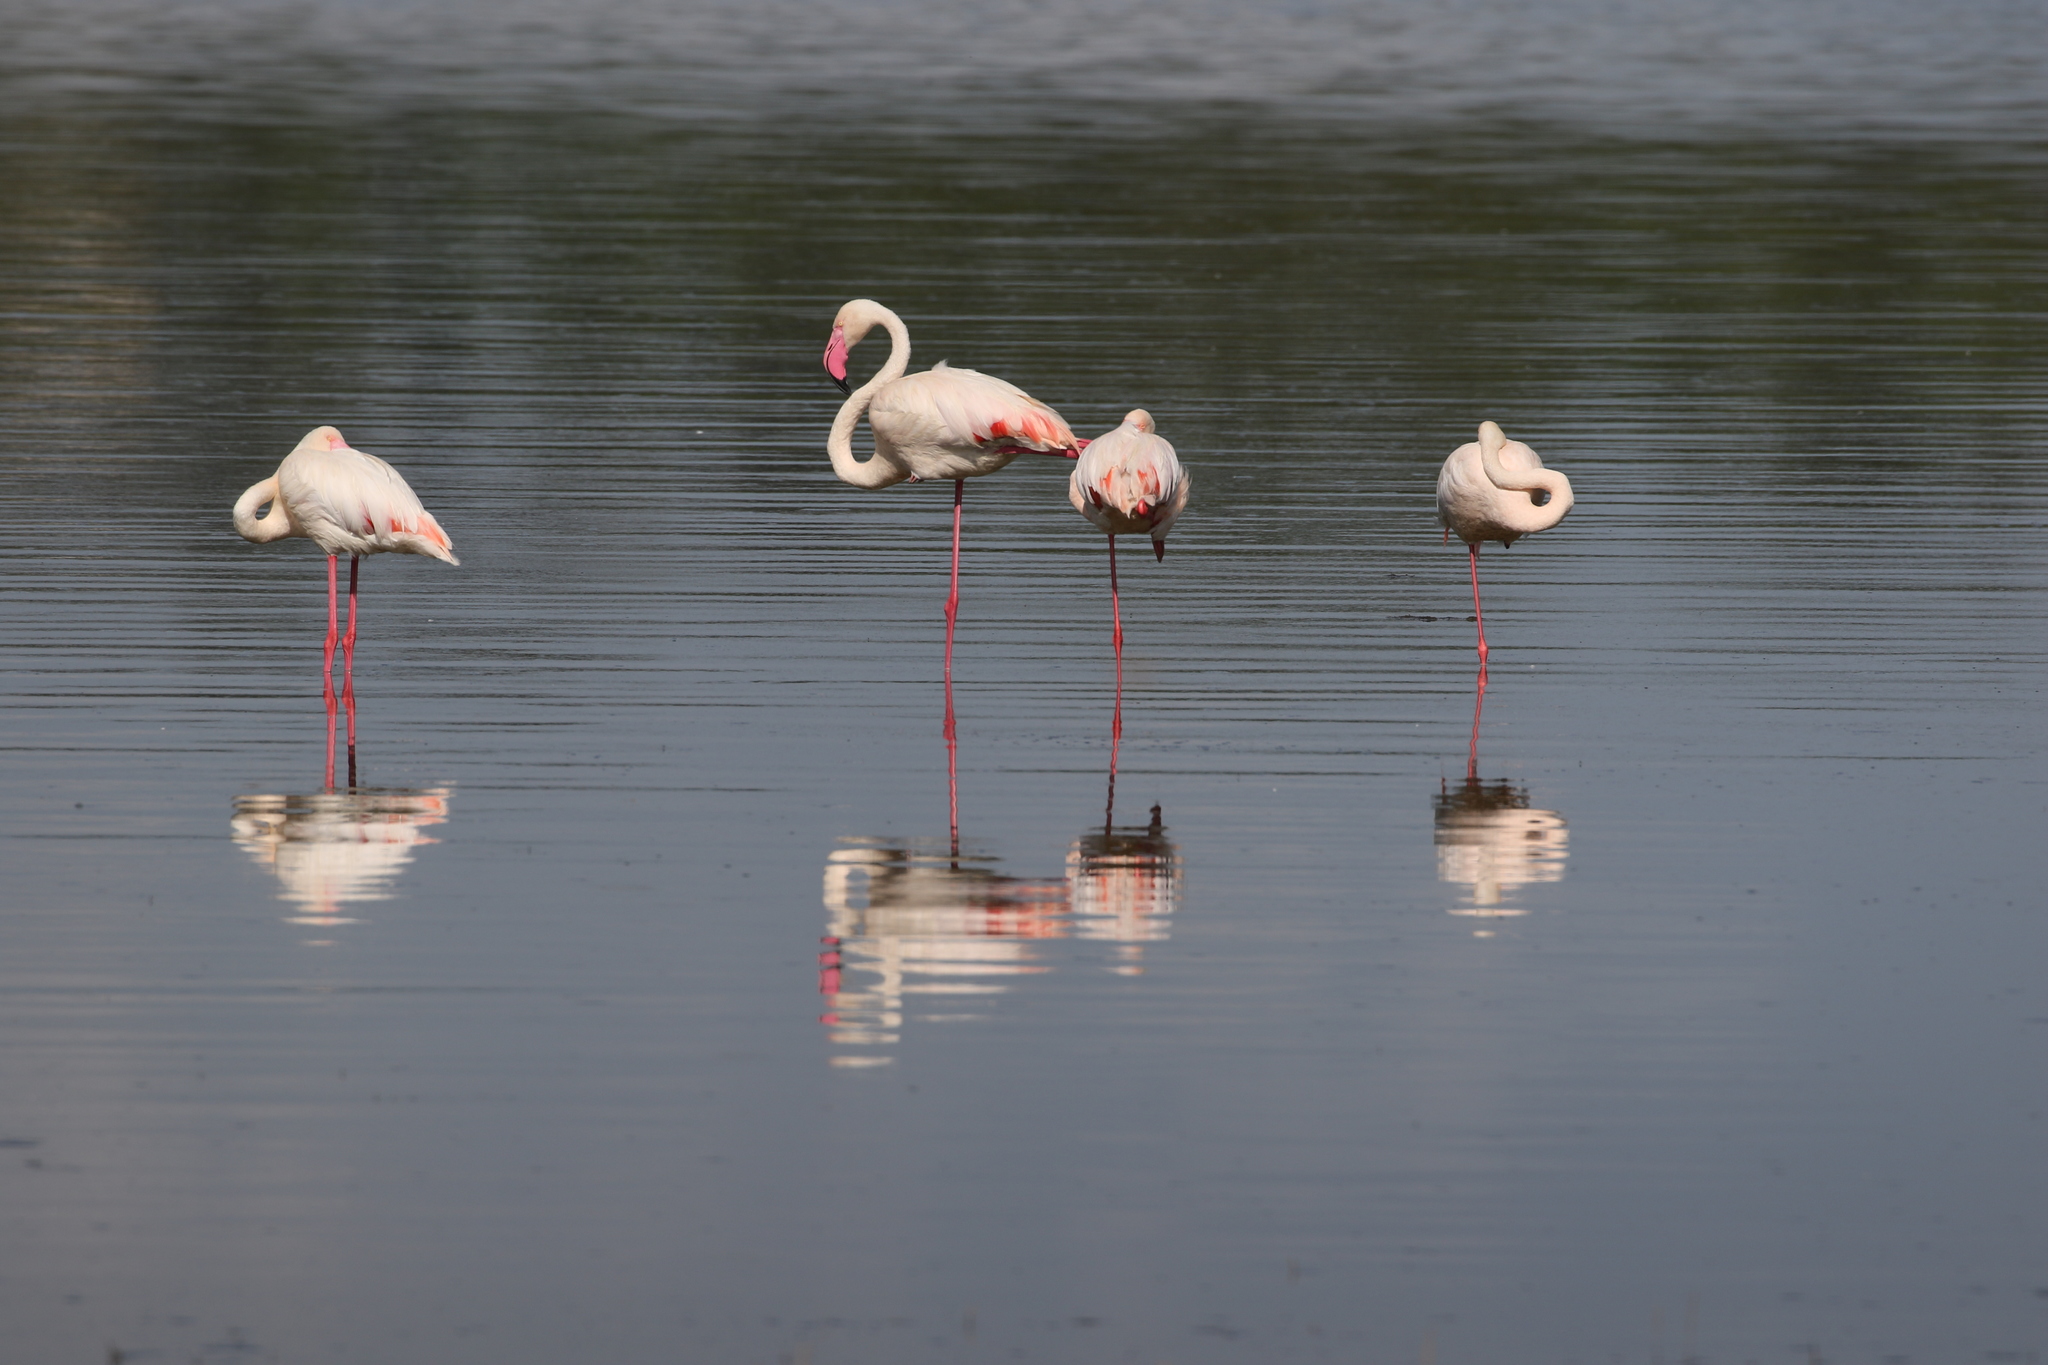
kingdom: Animalia
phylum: Chordata
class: Aves
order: Phoenicopteriformes
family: Phoenicopteridae
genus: Phoenicopterus
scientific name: Phoenicopterus roseus
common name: Greater flamingo
